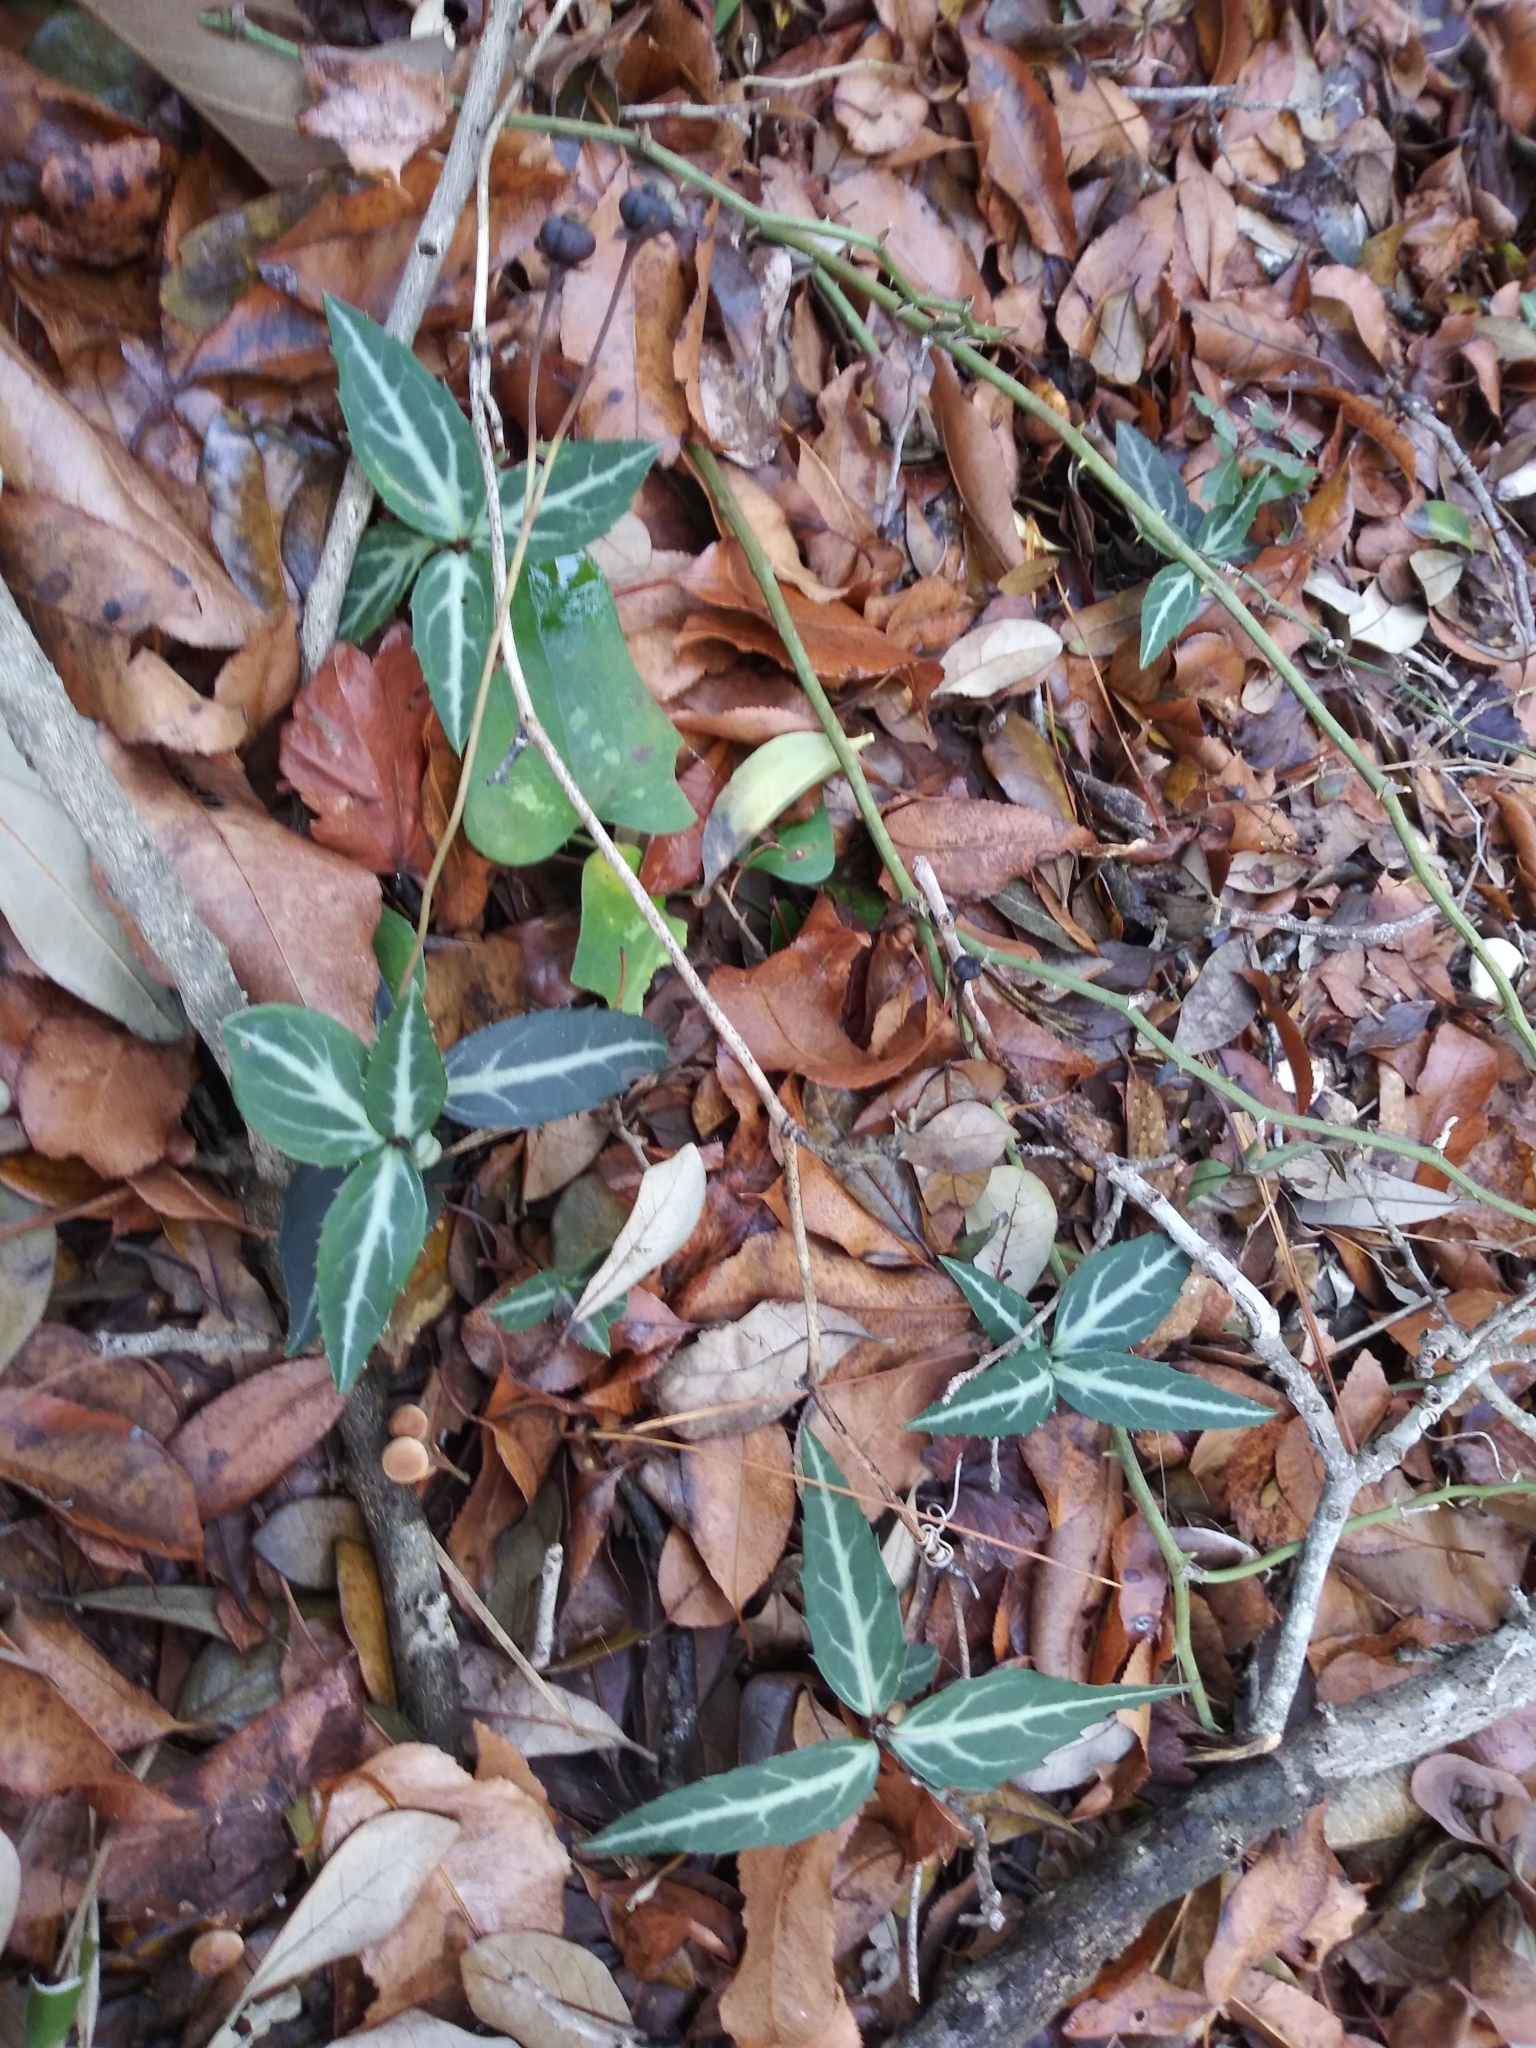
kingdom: Plantae
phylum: Tracheophyta
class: Magnoliopsida
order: Ericales
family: Ericaceae
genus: Chimaphila
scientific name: Chimaphila maculata
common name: Spotted pipsissewa
